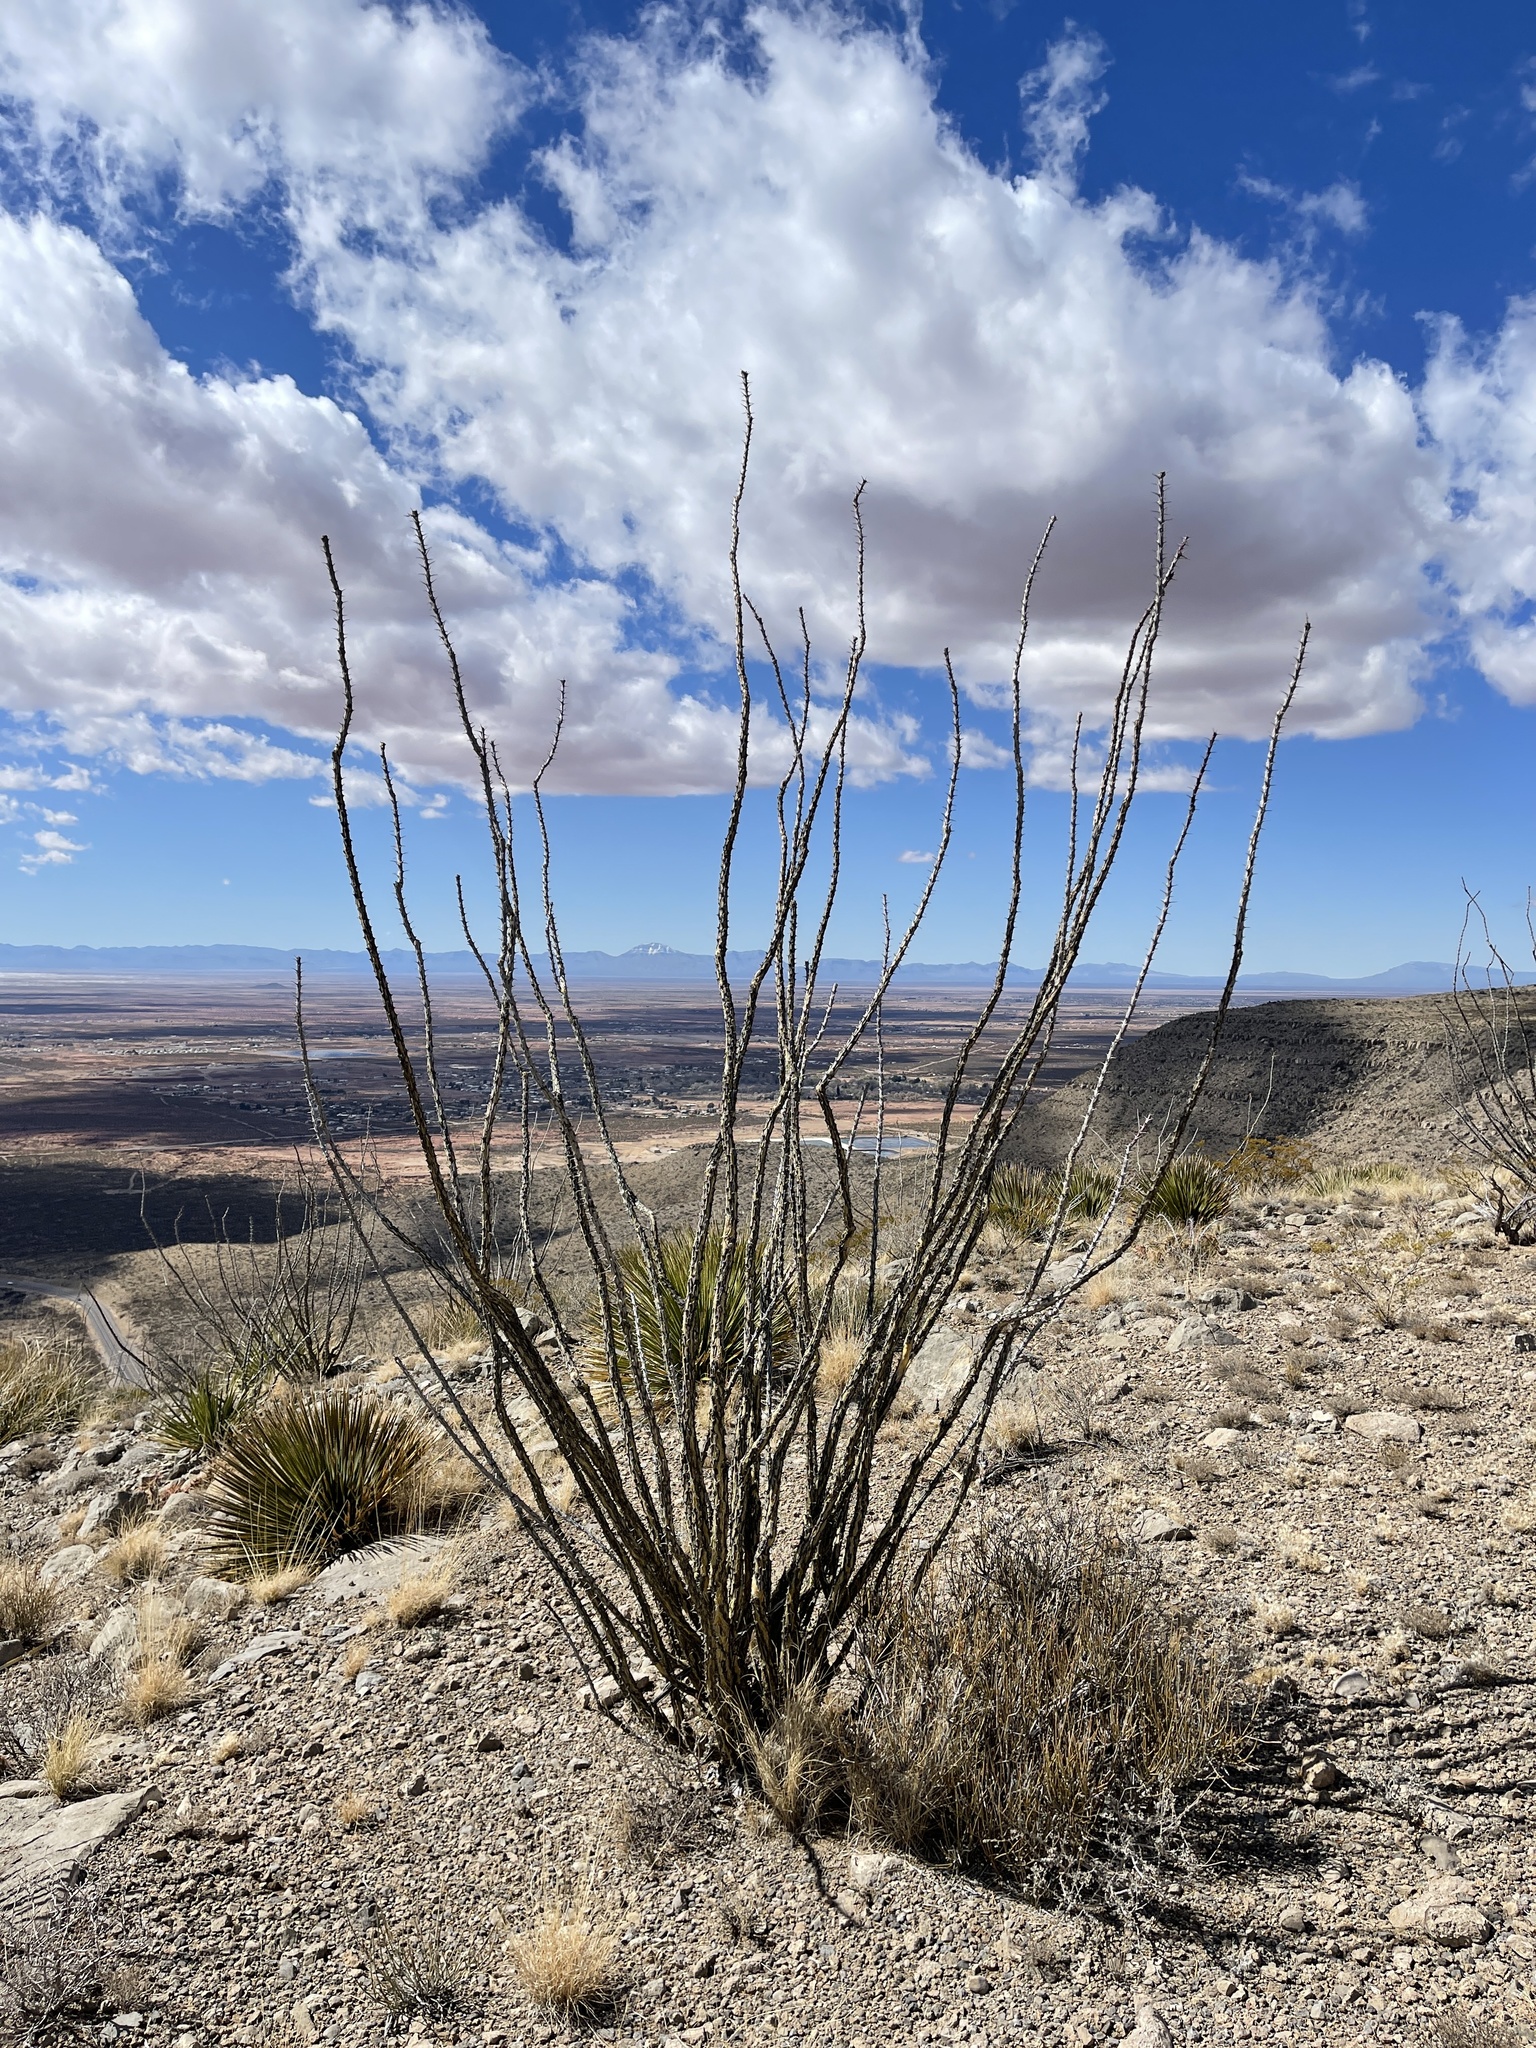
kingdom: Plantae
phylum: Tracheophyta
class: Magnoliopsida
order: Ericales
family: Fouquieriaceae
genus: Fouquieria
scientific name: Fouquieria splendens
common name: Vine-cactus
